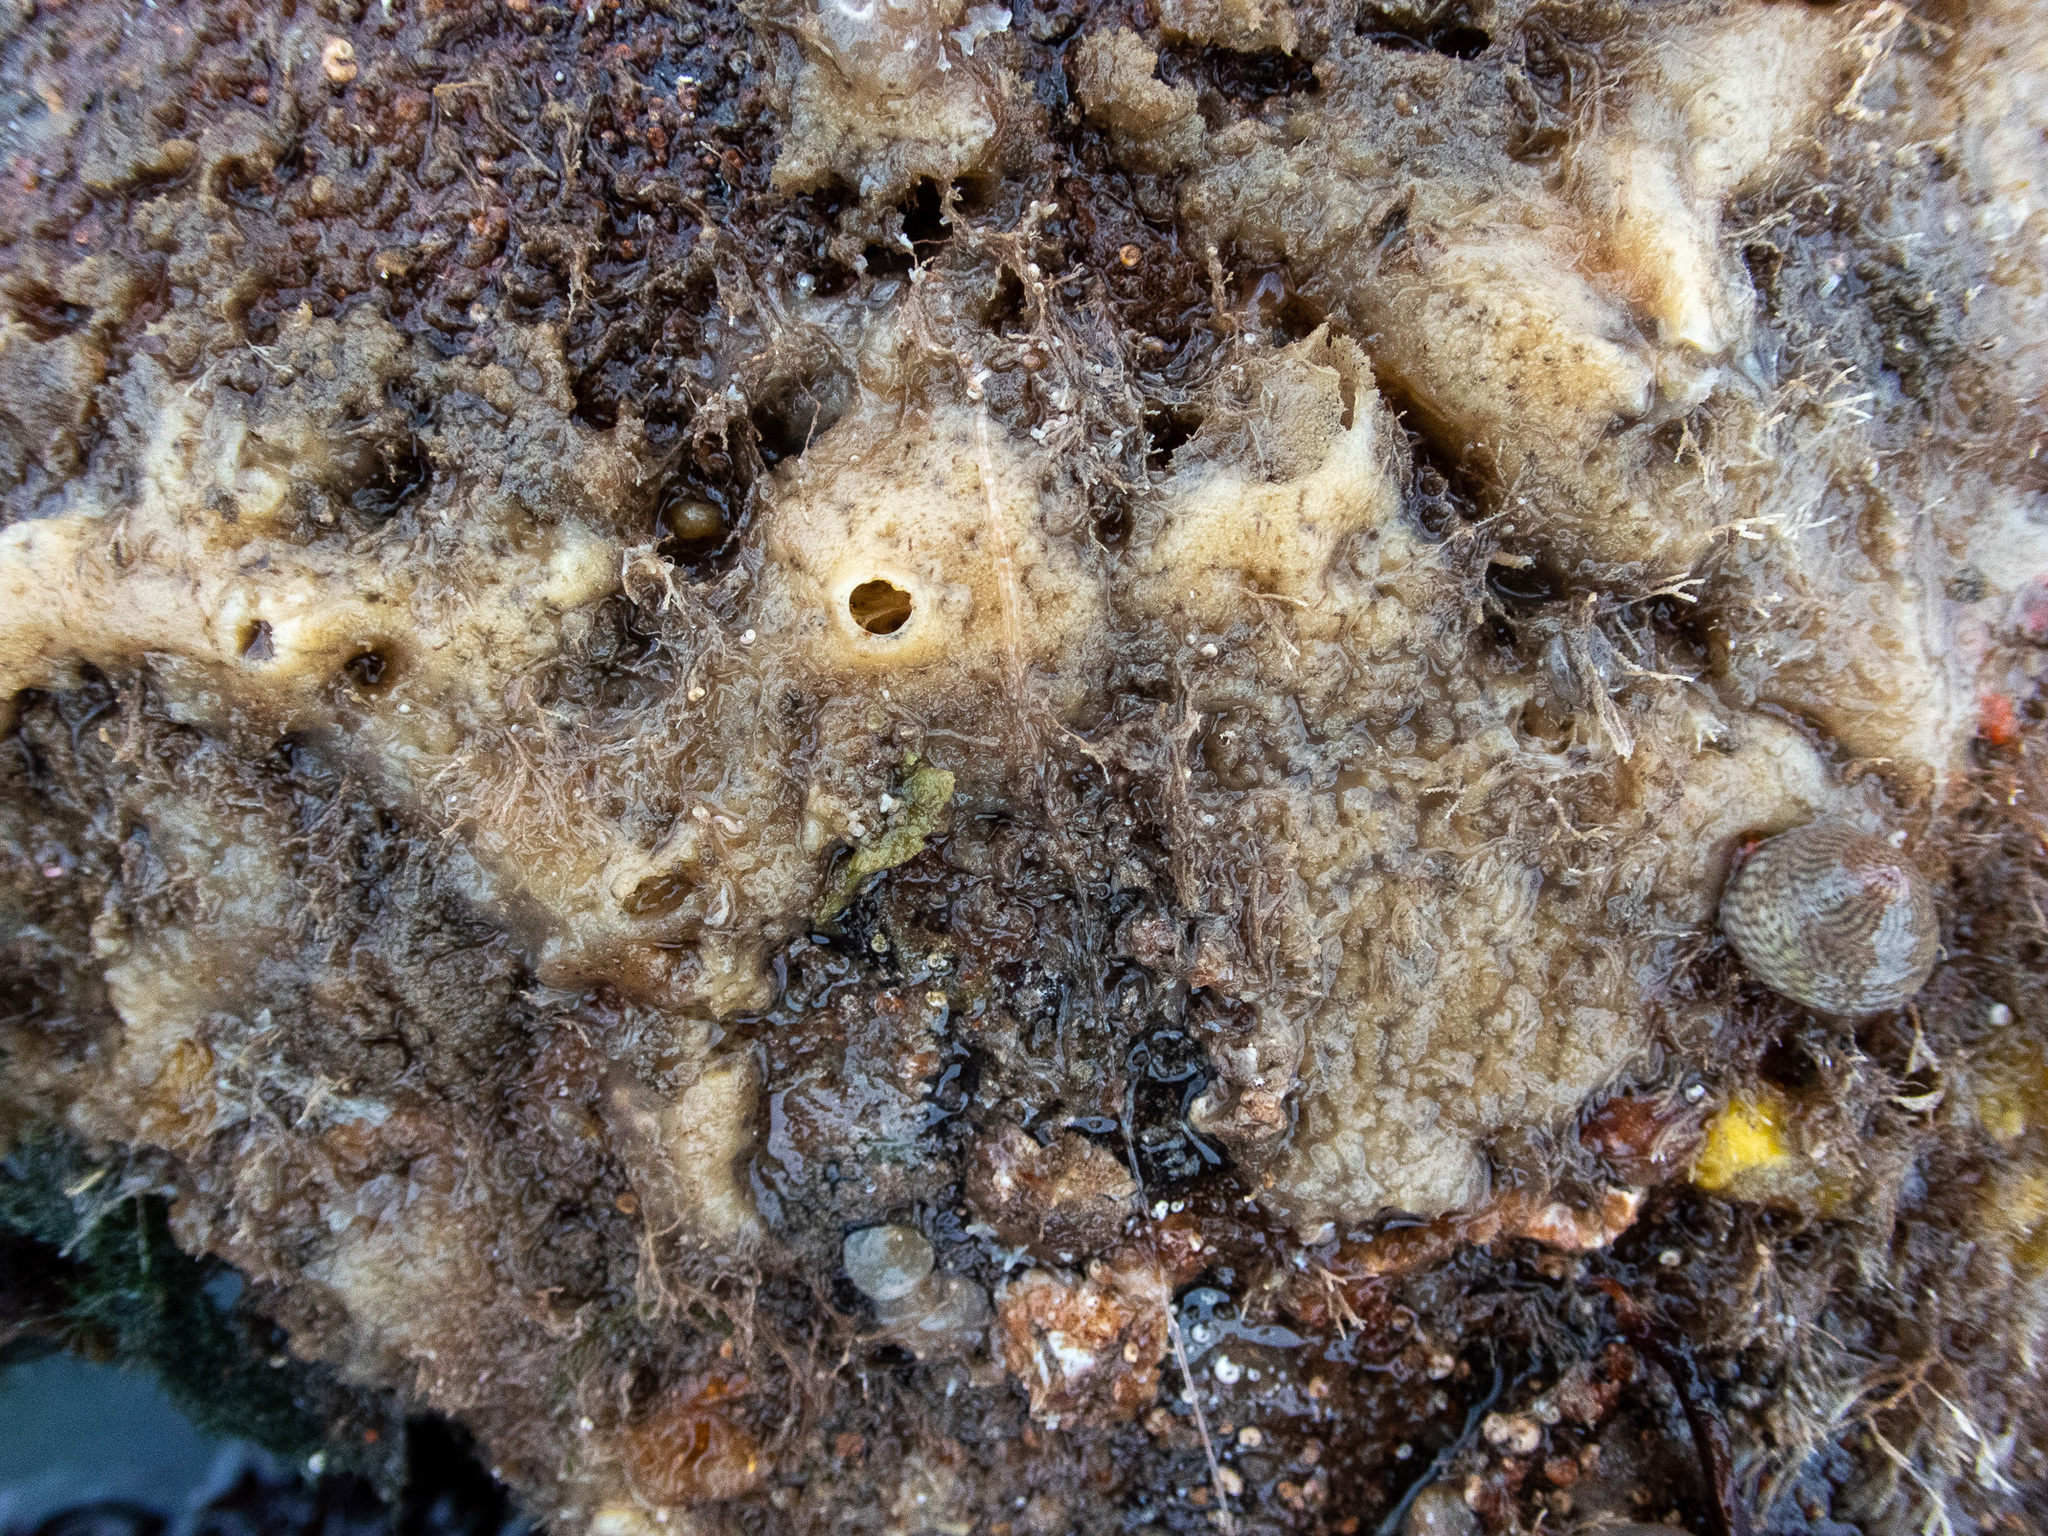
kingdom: Animalia
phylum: Porifera
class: Demospongiae
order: Haplosclerida
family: Chalinidae
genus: Haliclona
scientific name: Haliclona indistincta
